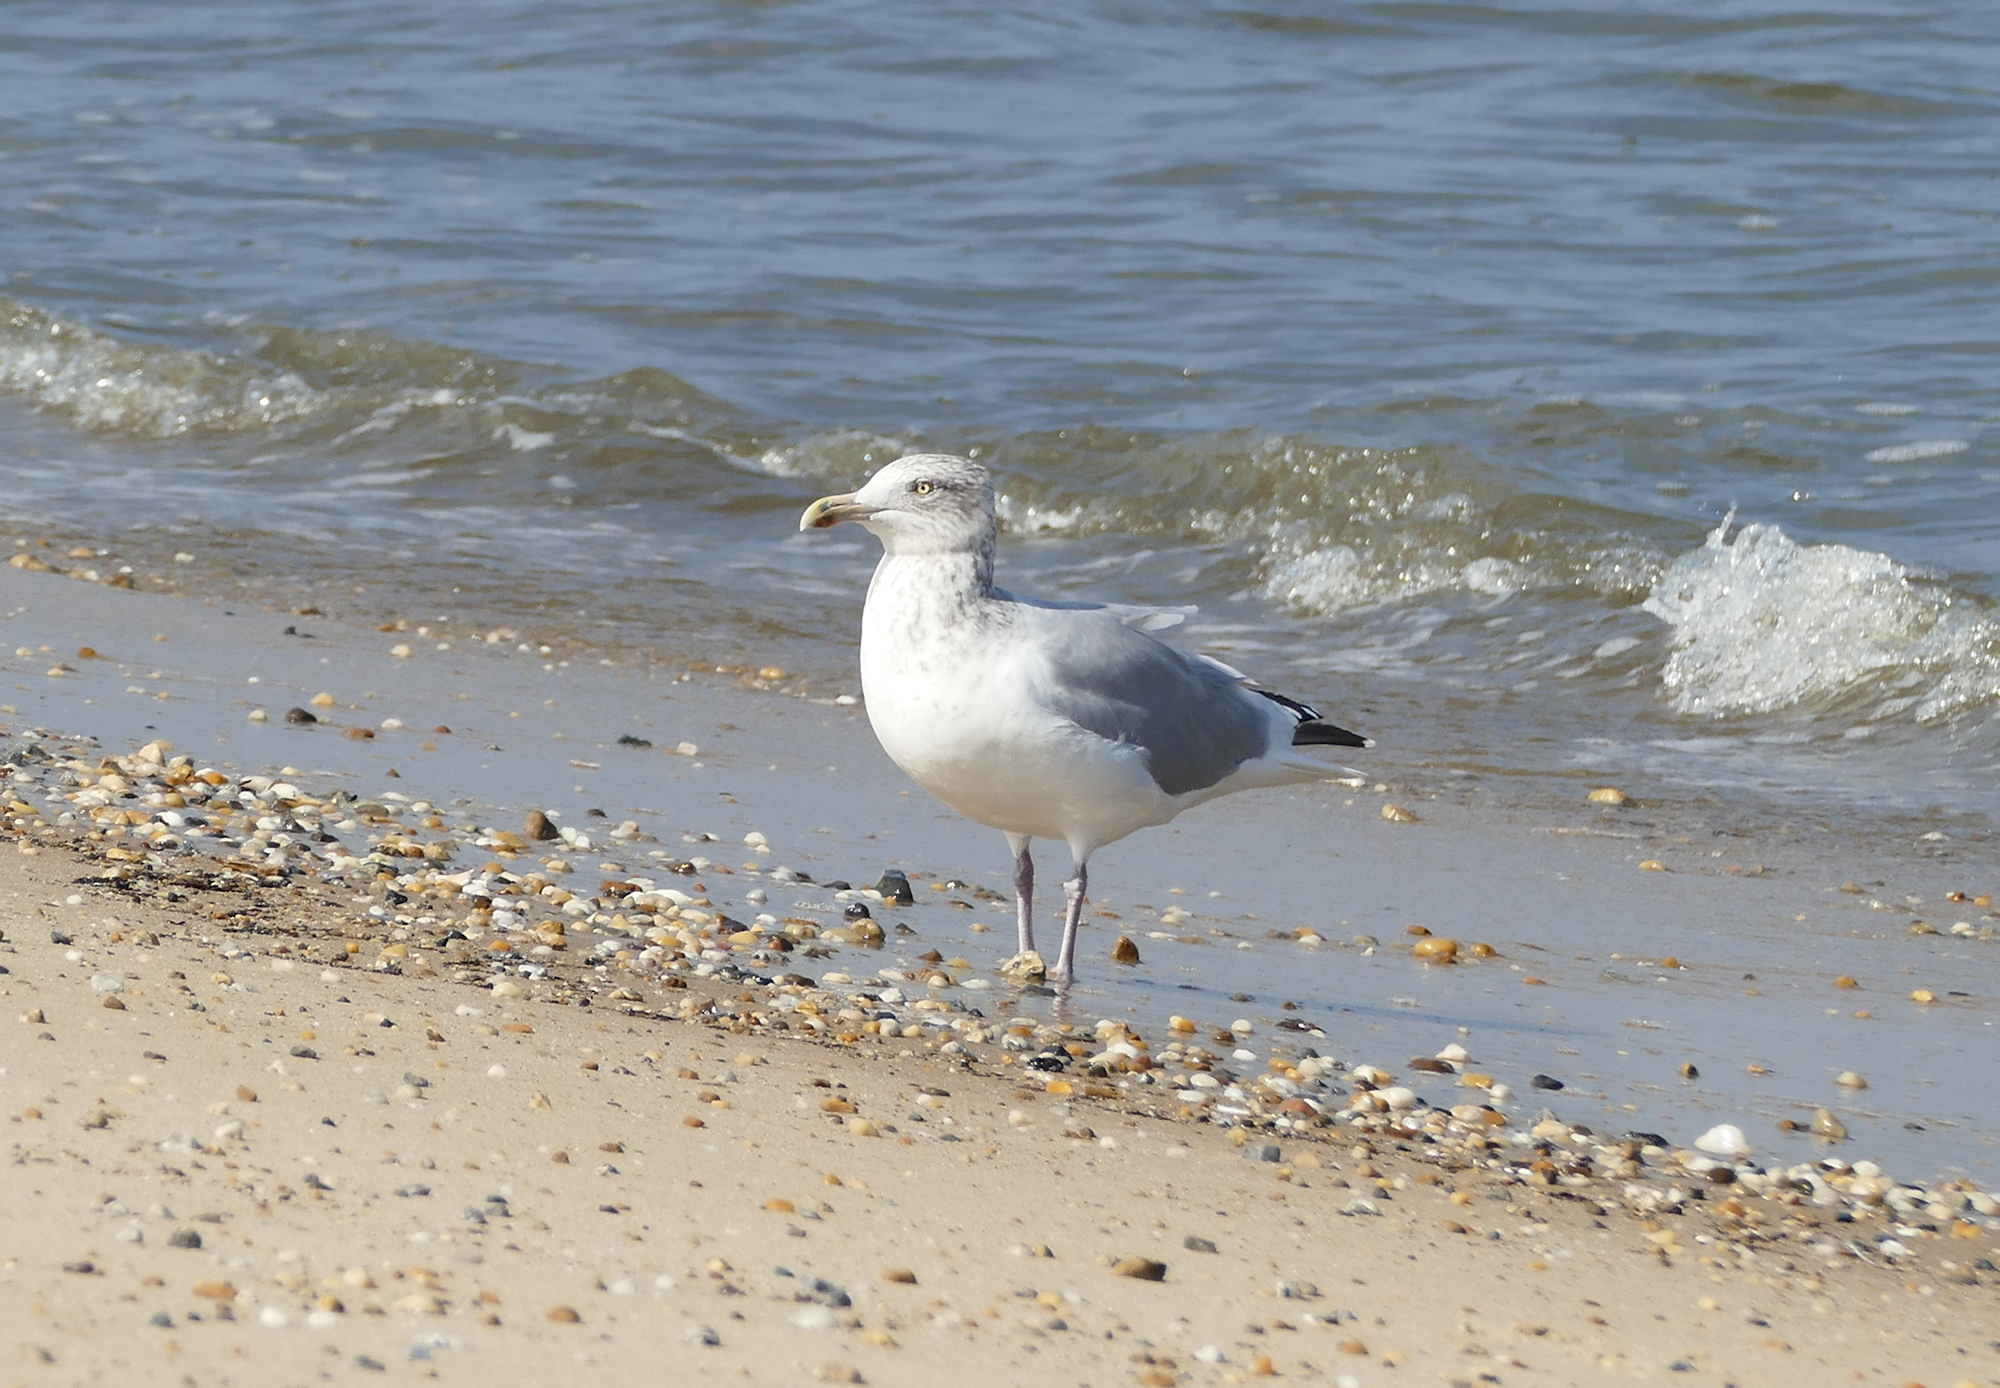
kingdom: Animalia
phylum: Chordata
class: Aves
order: Charadriiformes
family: Laridae
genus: Larus
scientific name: Larus argentatus
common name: Herring gull
